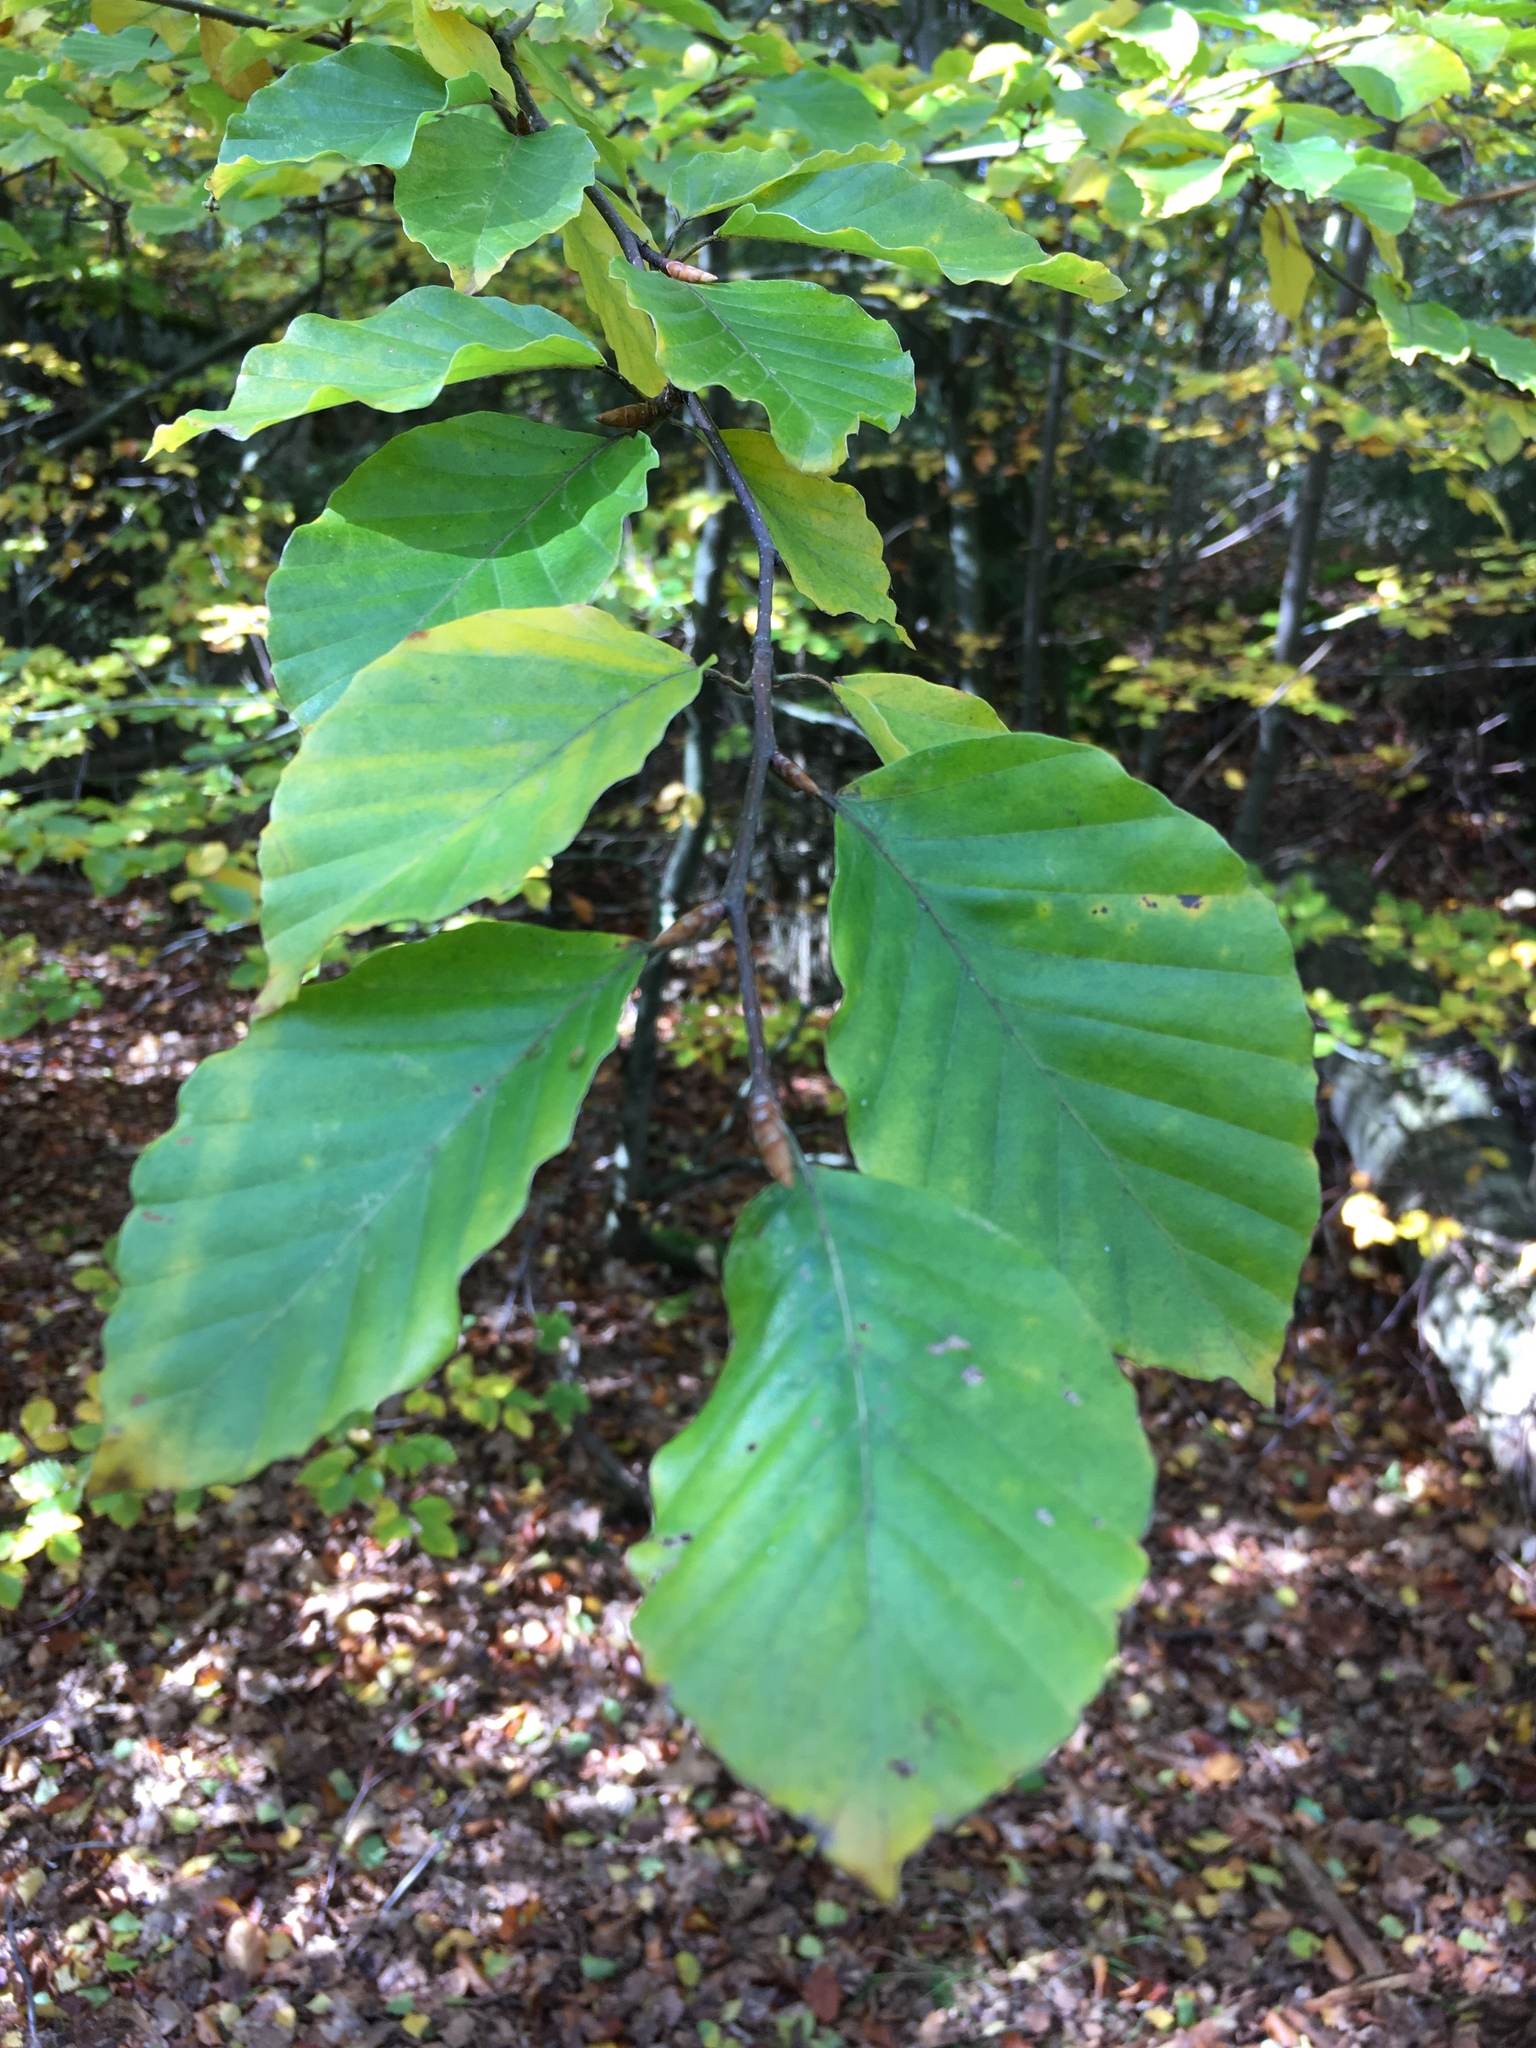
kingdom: Plantae
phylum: Tracheophyta
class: Magnoliopsida
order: Fagales
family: Fagaceae
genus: Fagus
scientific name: Fagus sylvatica
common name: Beech
